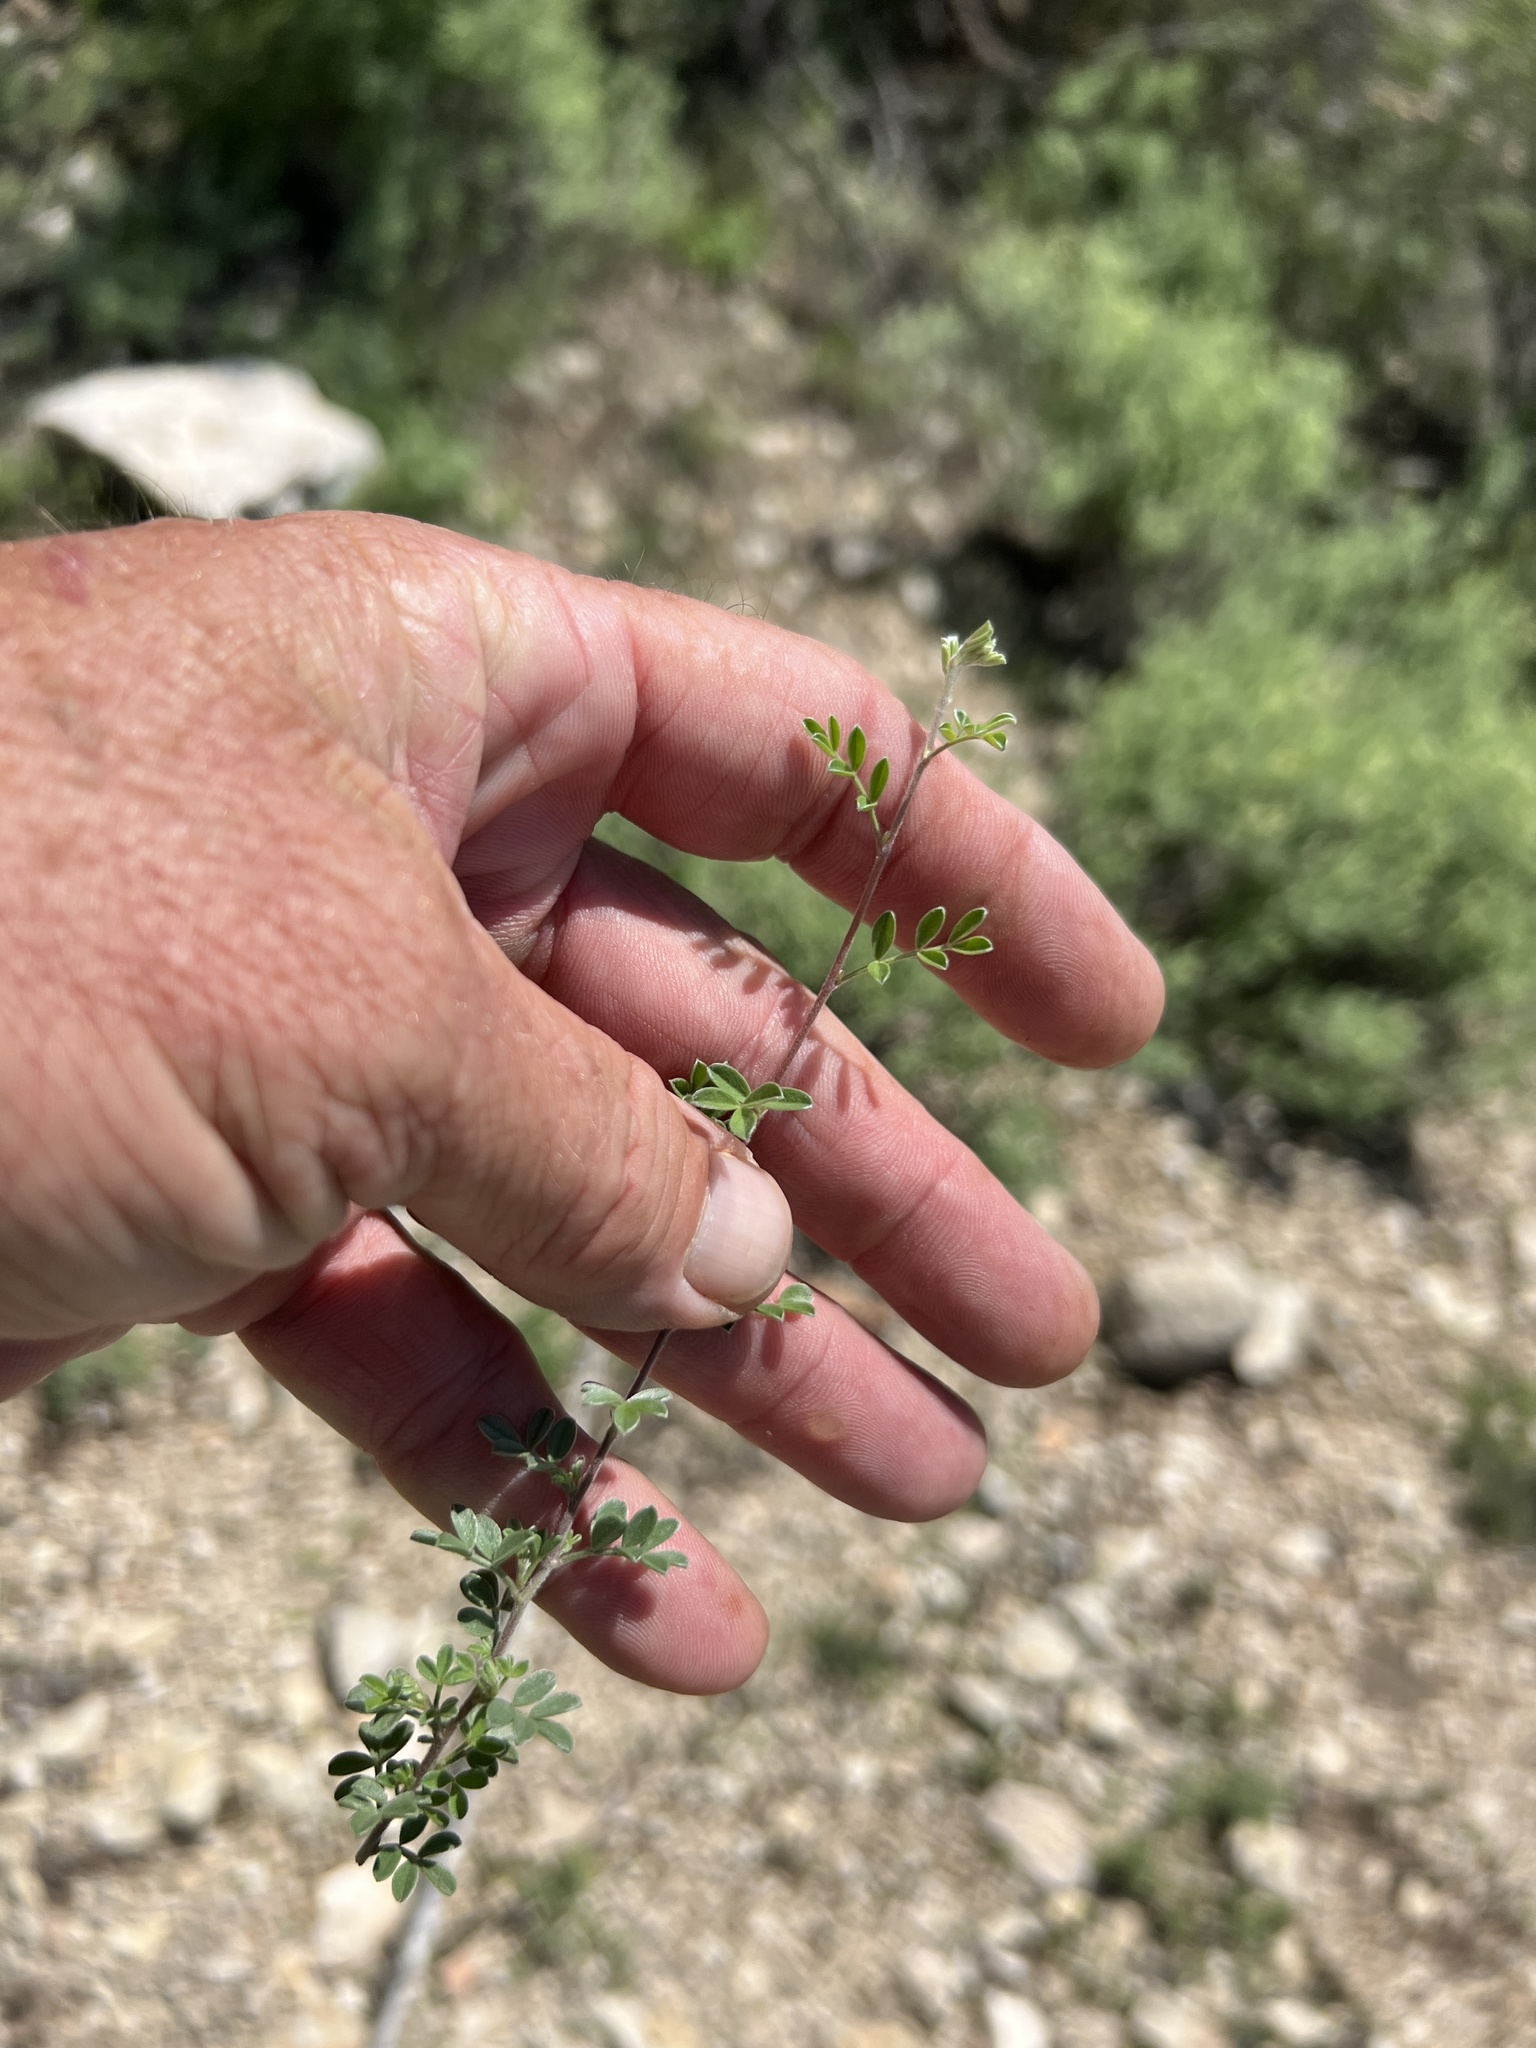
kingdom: Plantae
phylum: Tracheophyta
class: Magnoliopsida
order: Fabales
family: Fabaceae
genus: Senegalia
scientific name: Senegalia greggii
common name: Texas-mimosa
